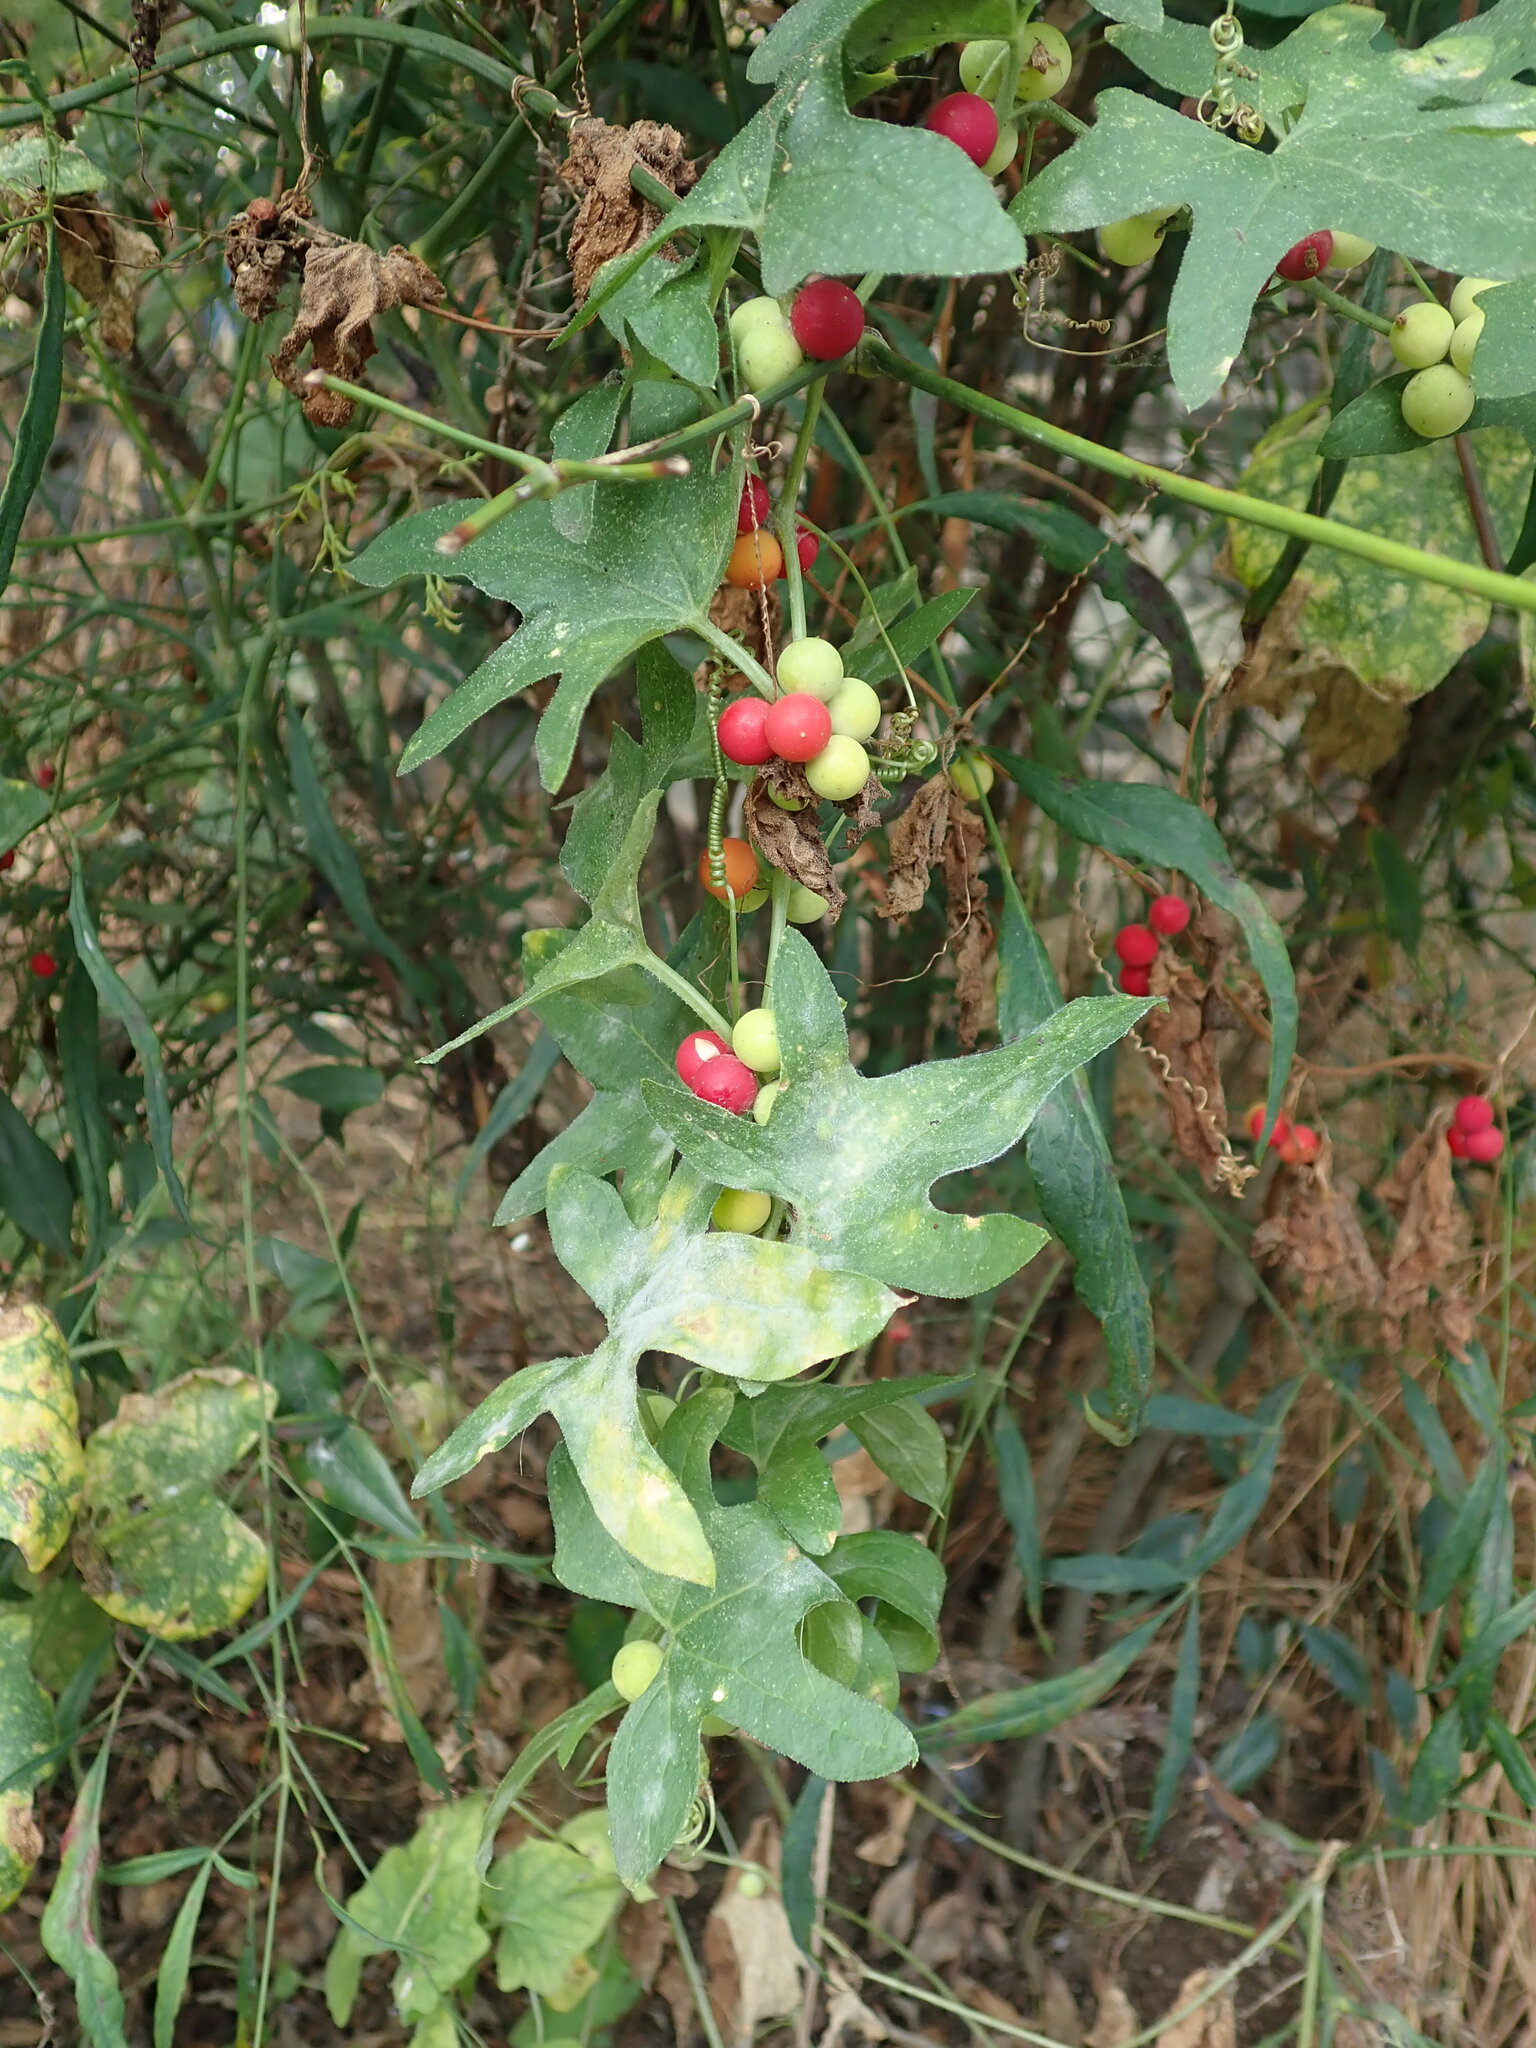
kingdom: Plantae
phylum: Tracheophyta
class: Magnoliopsida
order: Cucurbitales
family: Cucurbitaceae
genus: Bryonia
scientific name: Bryonia cretica
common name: Cretan bryony
